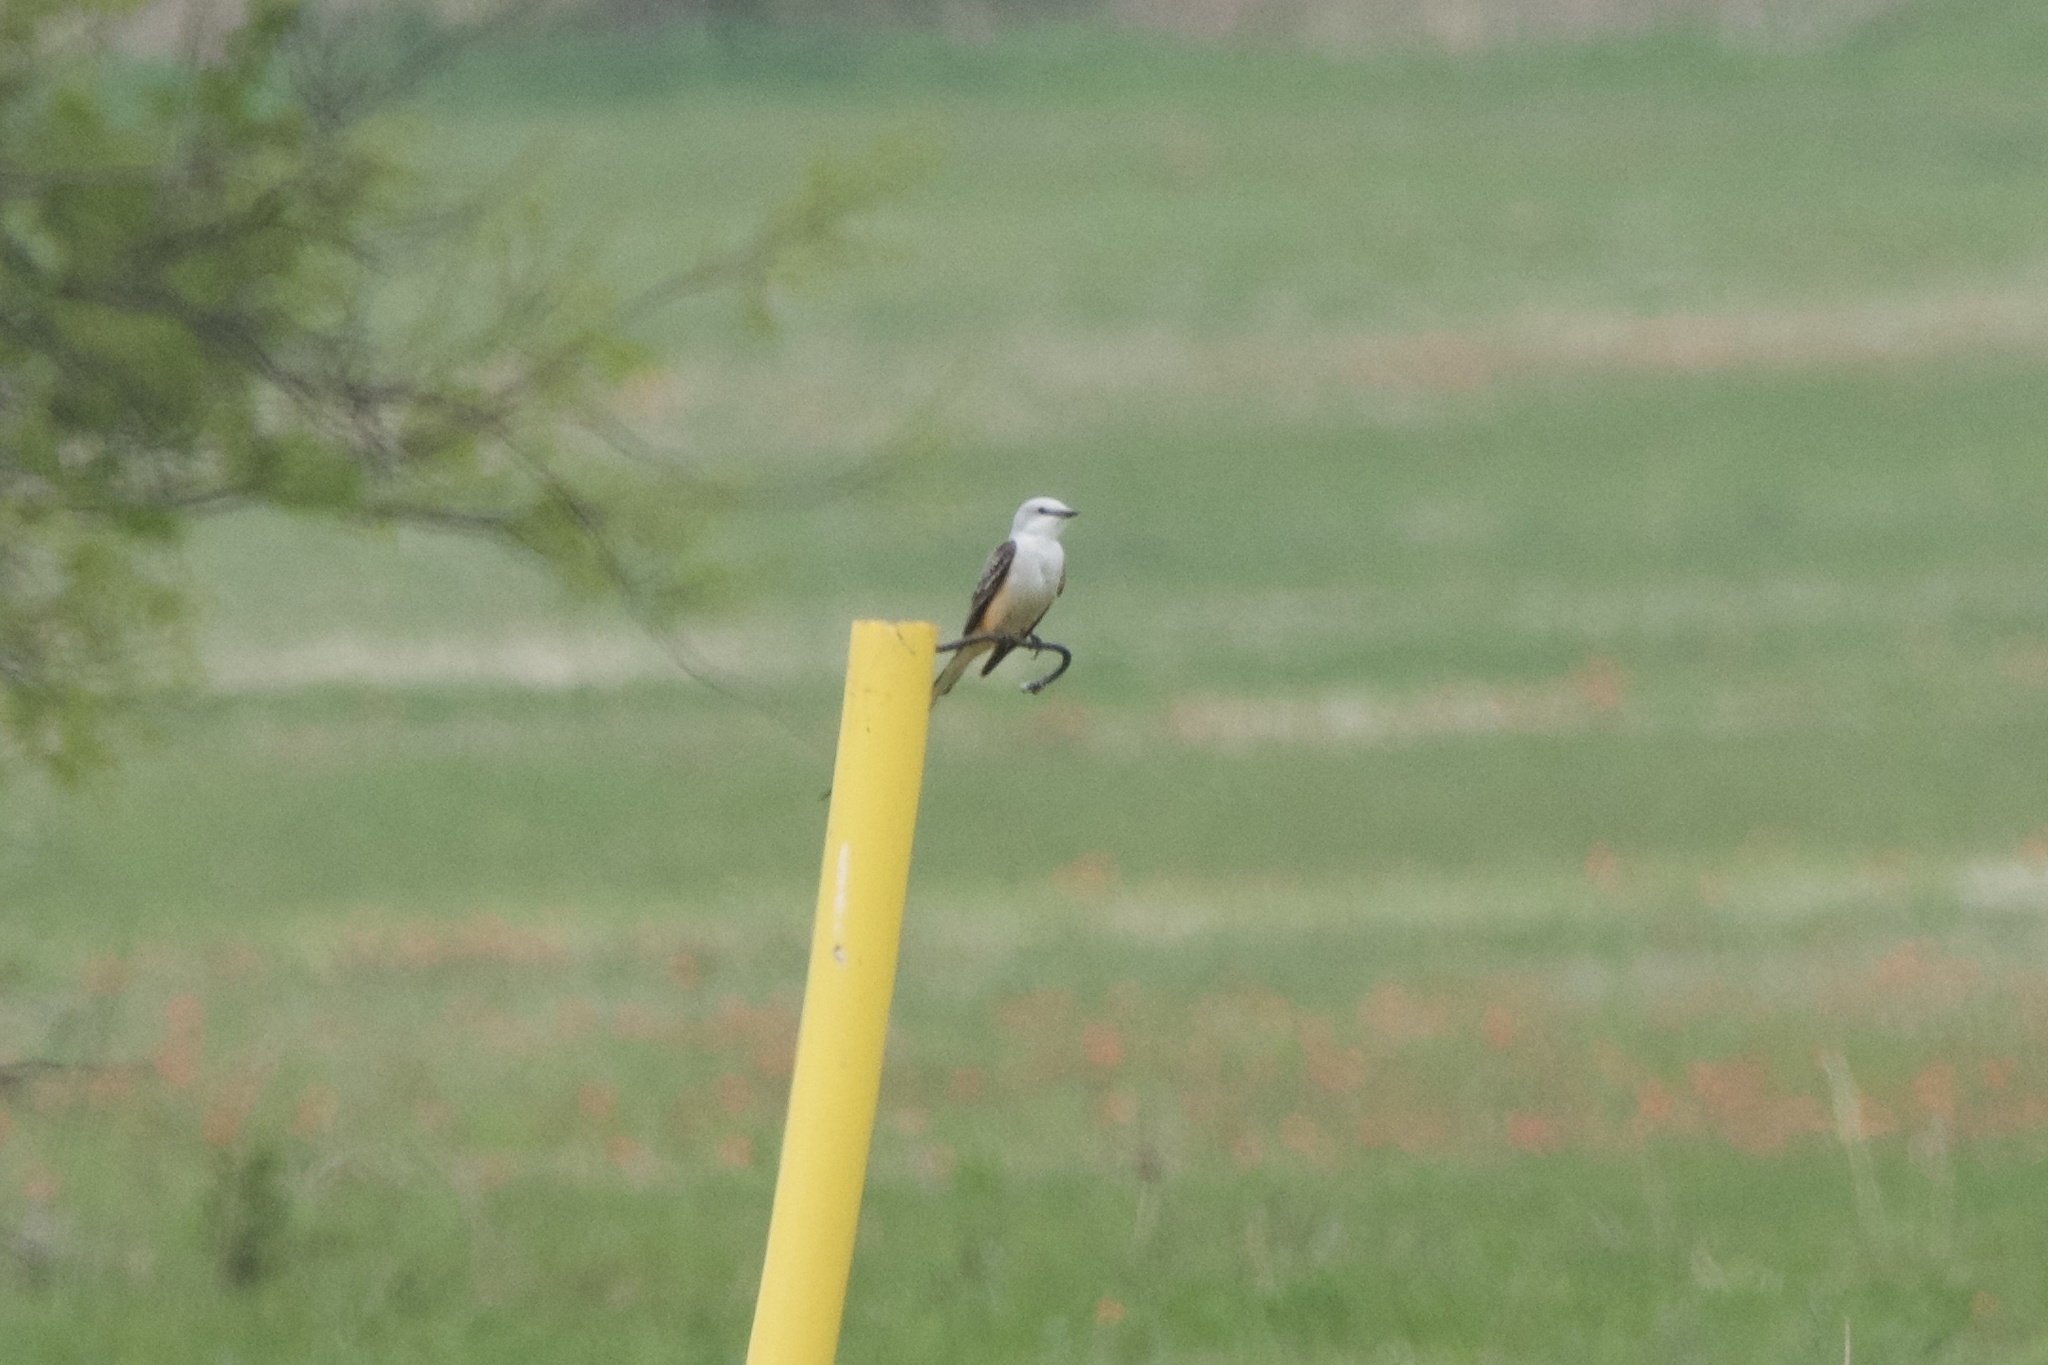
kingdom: Animalia
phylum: Chordata
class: Aves
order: Passeriformes
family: Tyrannidae
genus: Tyrannus
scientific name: Tyrannus forficatus
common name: Scissor-tailed flycatcher
